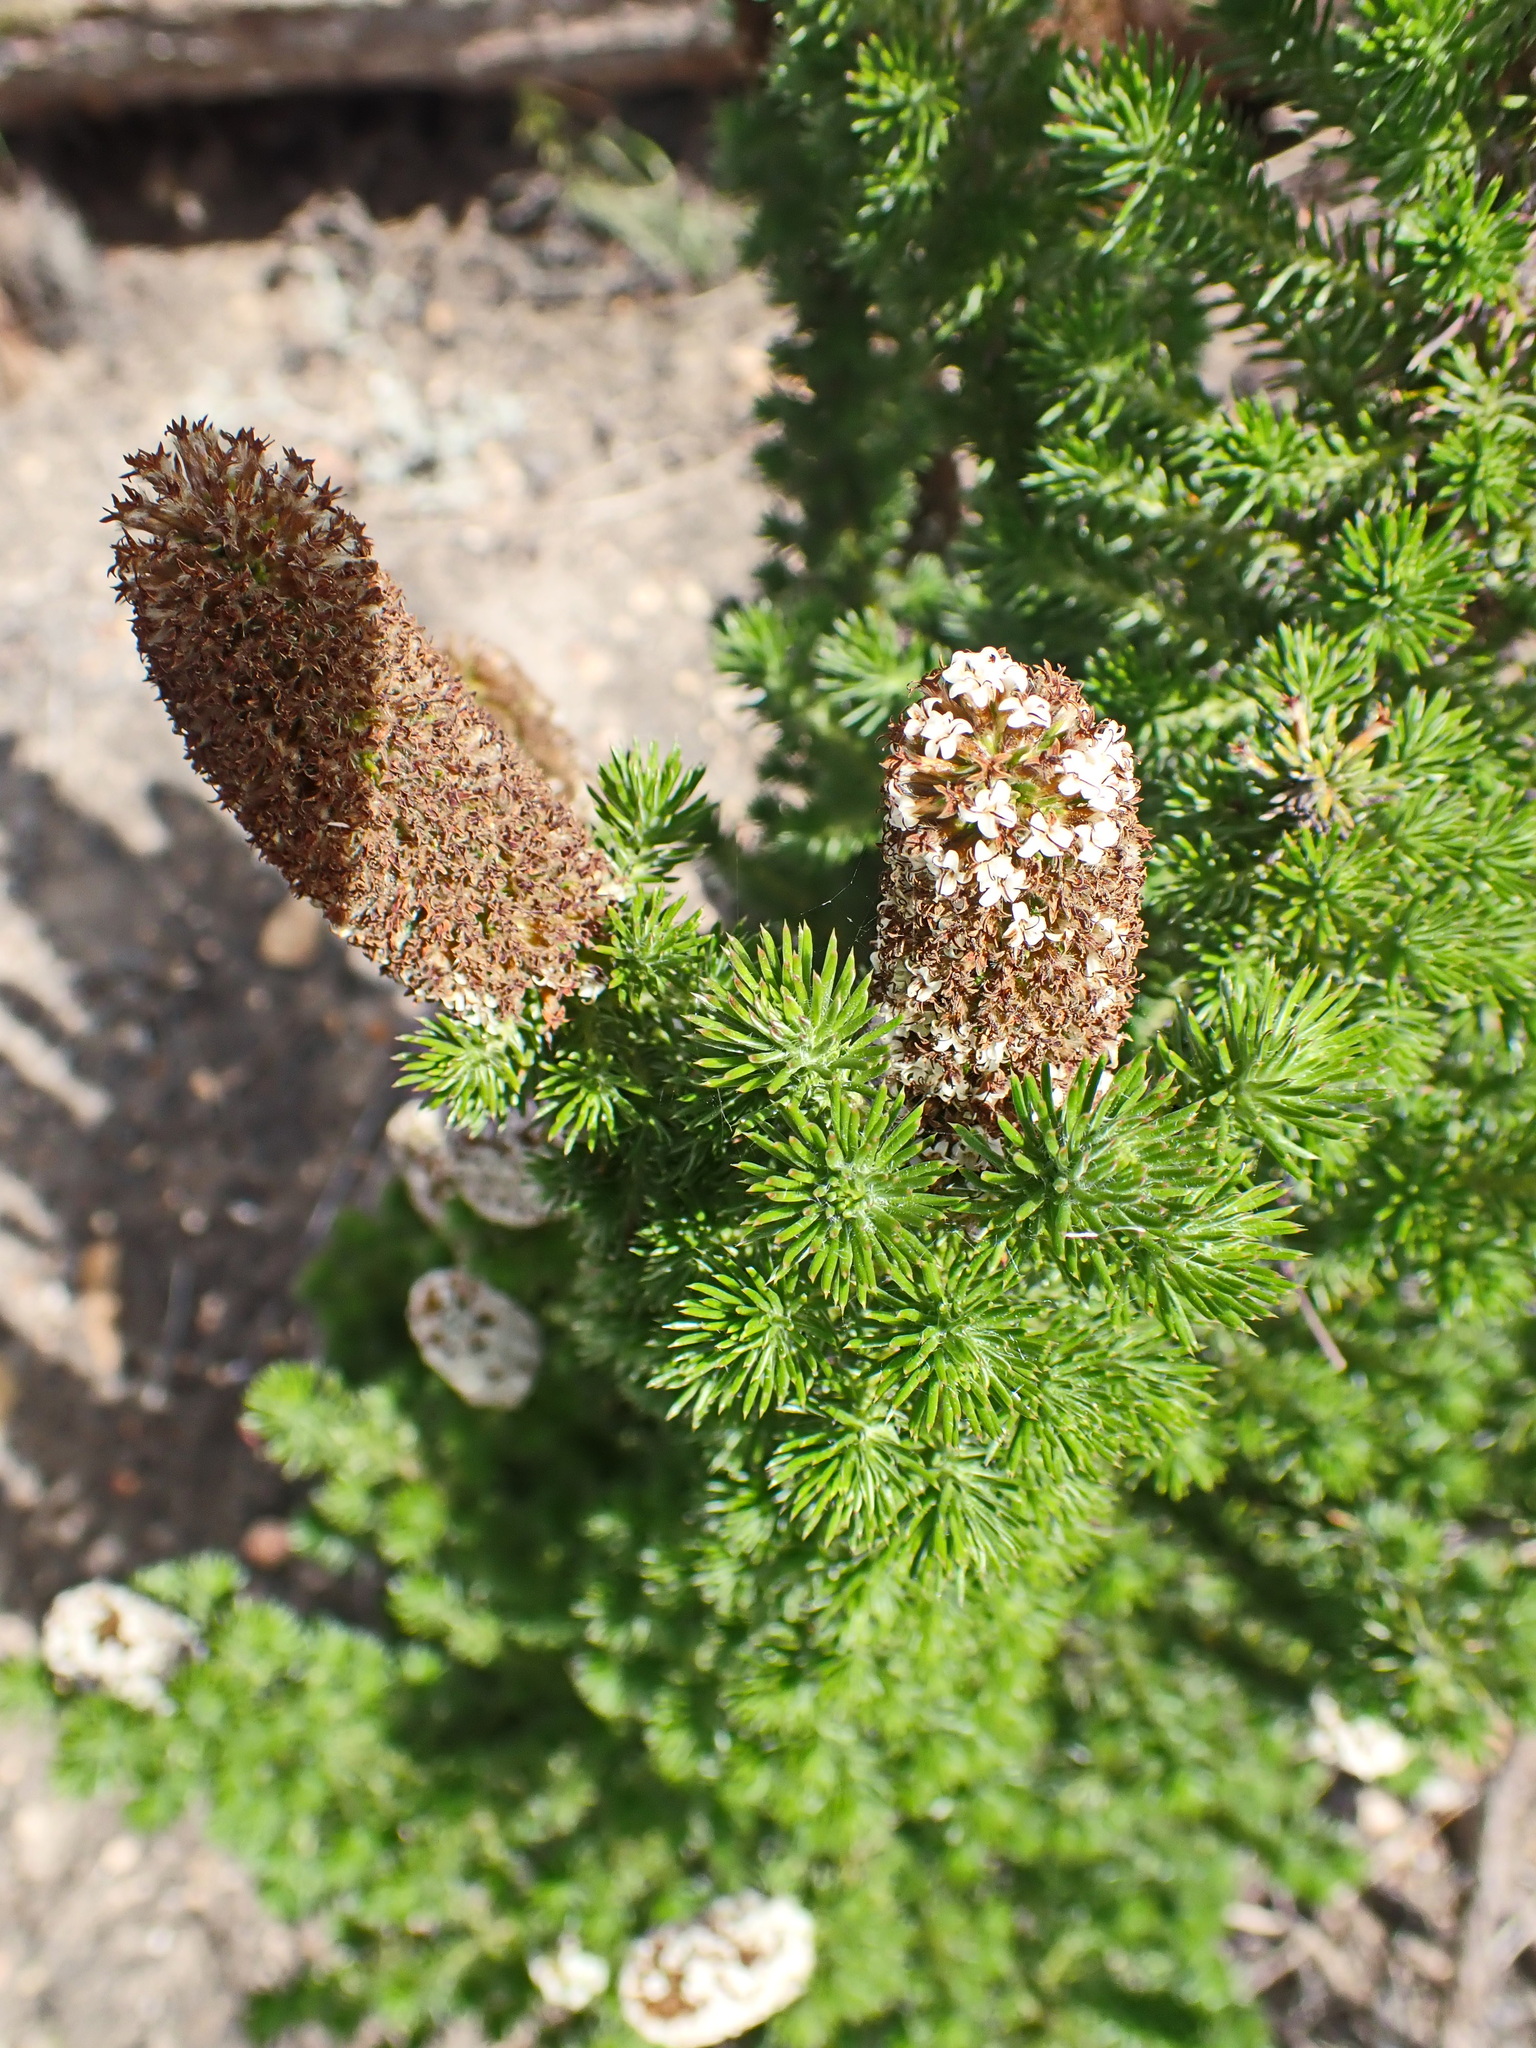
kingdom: Plantae
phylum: Tracheophyta
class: Magnoliopsida
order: Asterales
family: Asteraceae
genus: Stoebe
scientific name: Stoebe alopecuroides
